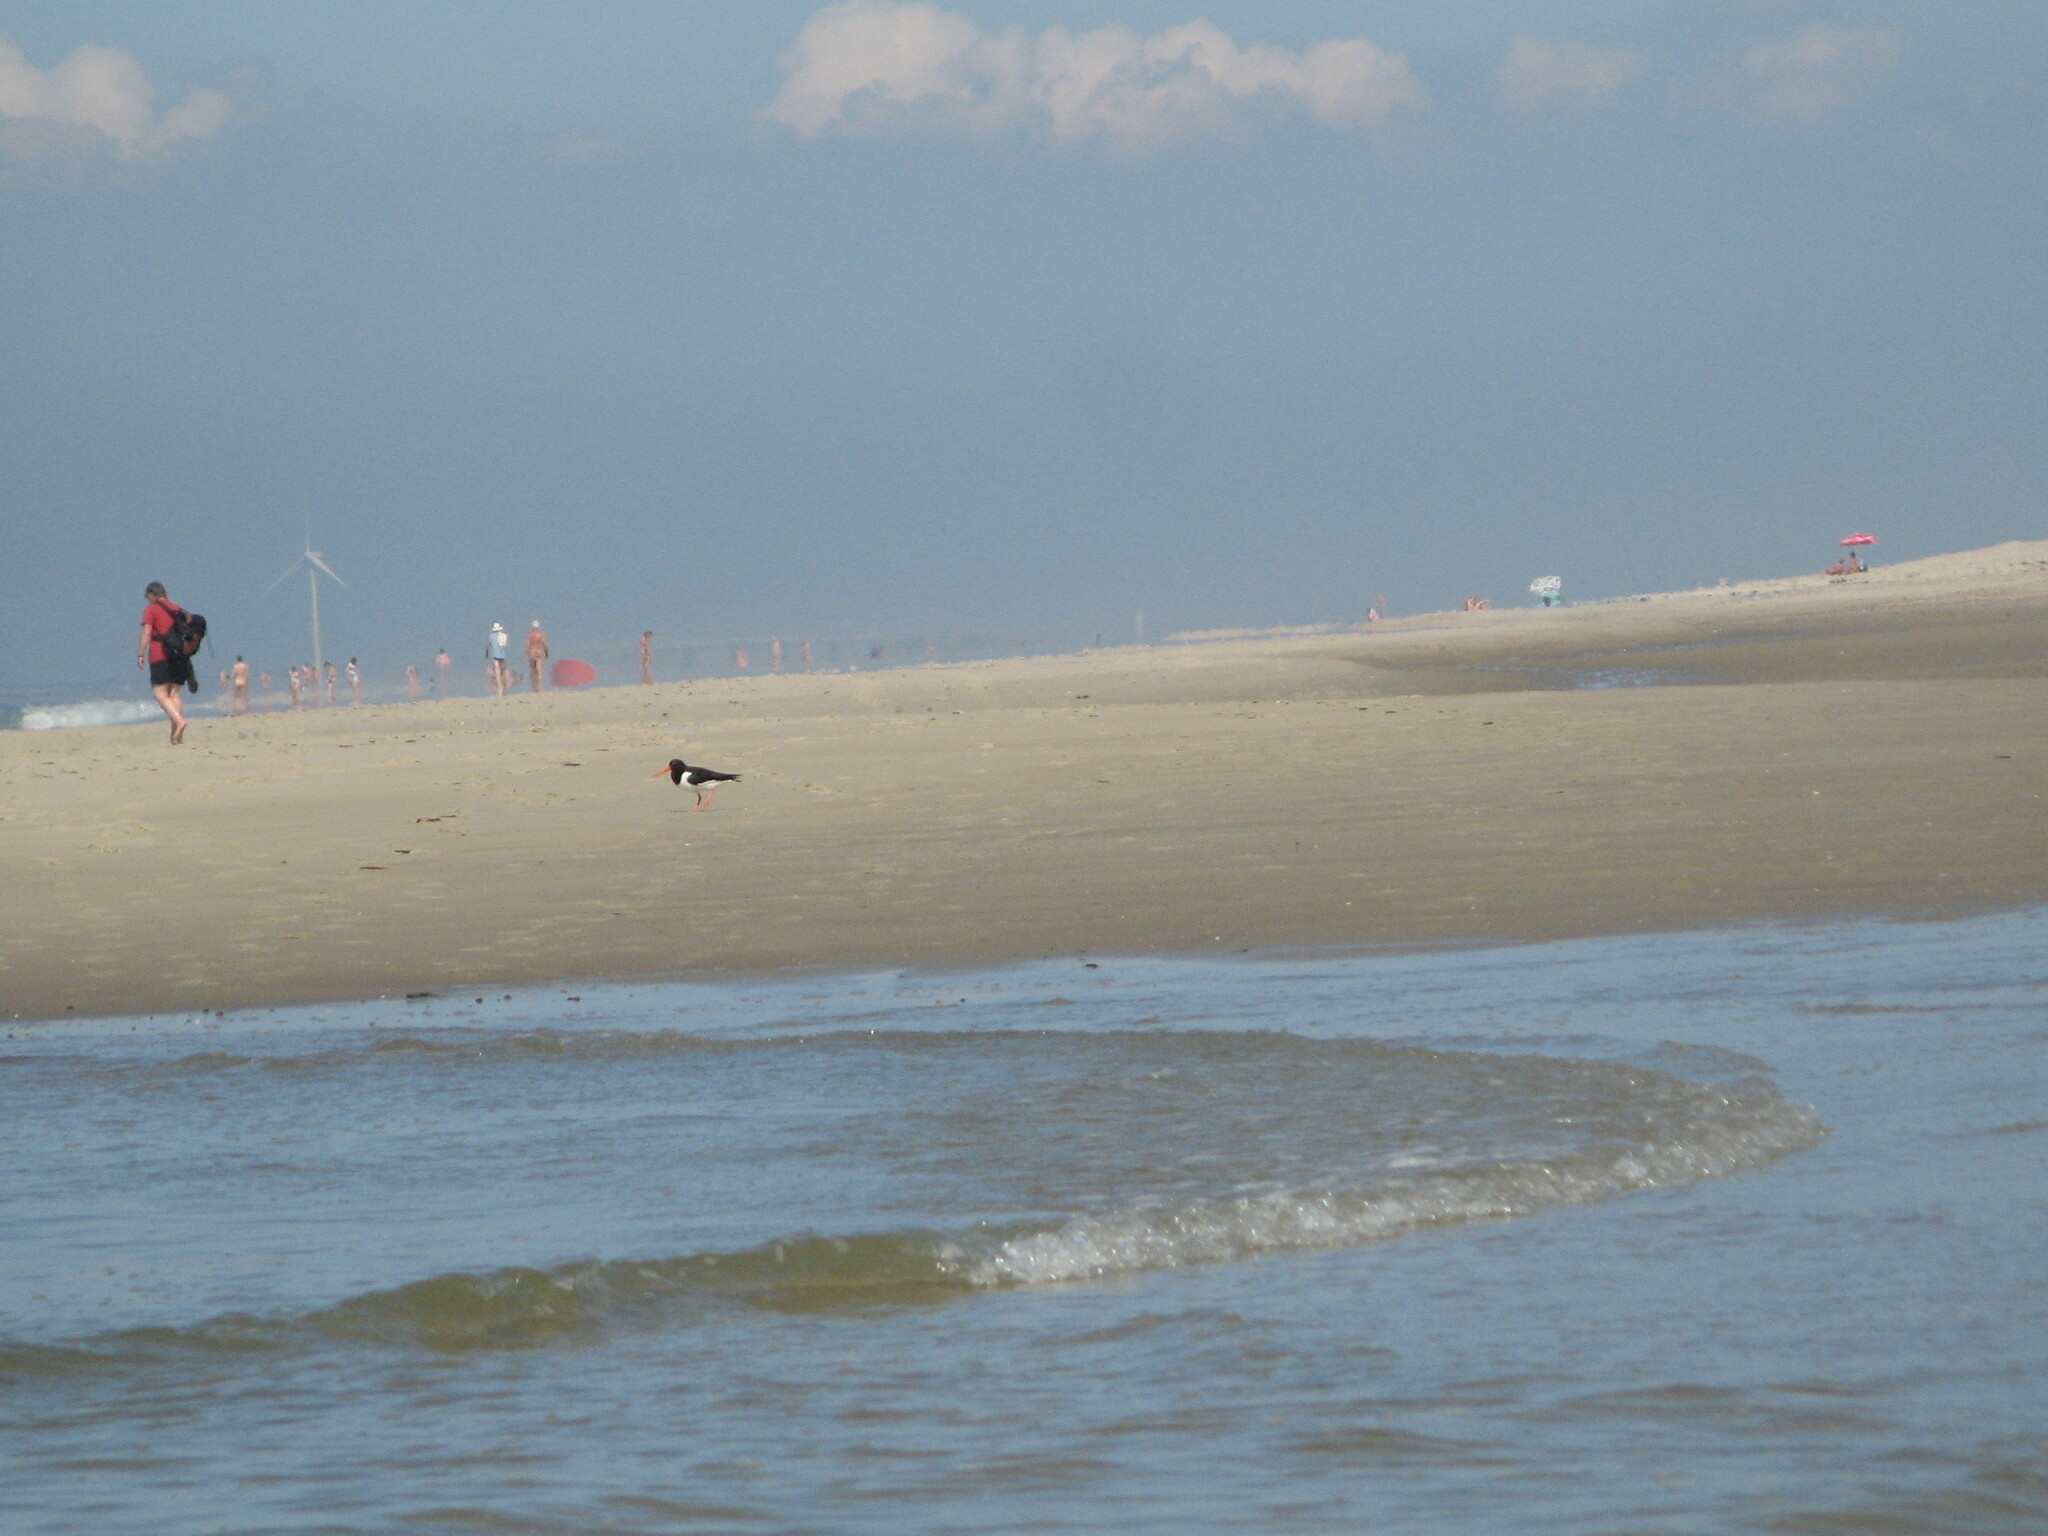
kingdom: Animalia
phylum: Chordata
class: Aves
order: Charadriiformes
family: Haematopodidae
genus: Haematopus
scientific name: Haematopus ostralegus
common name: Eurasian oystercatcher
